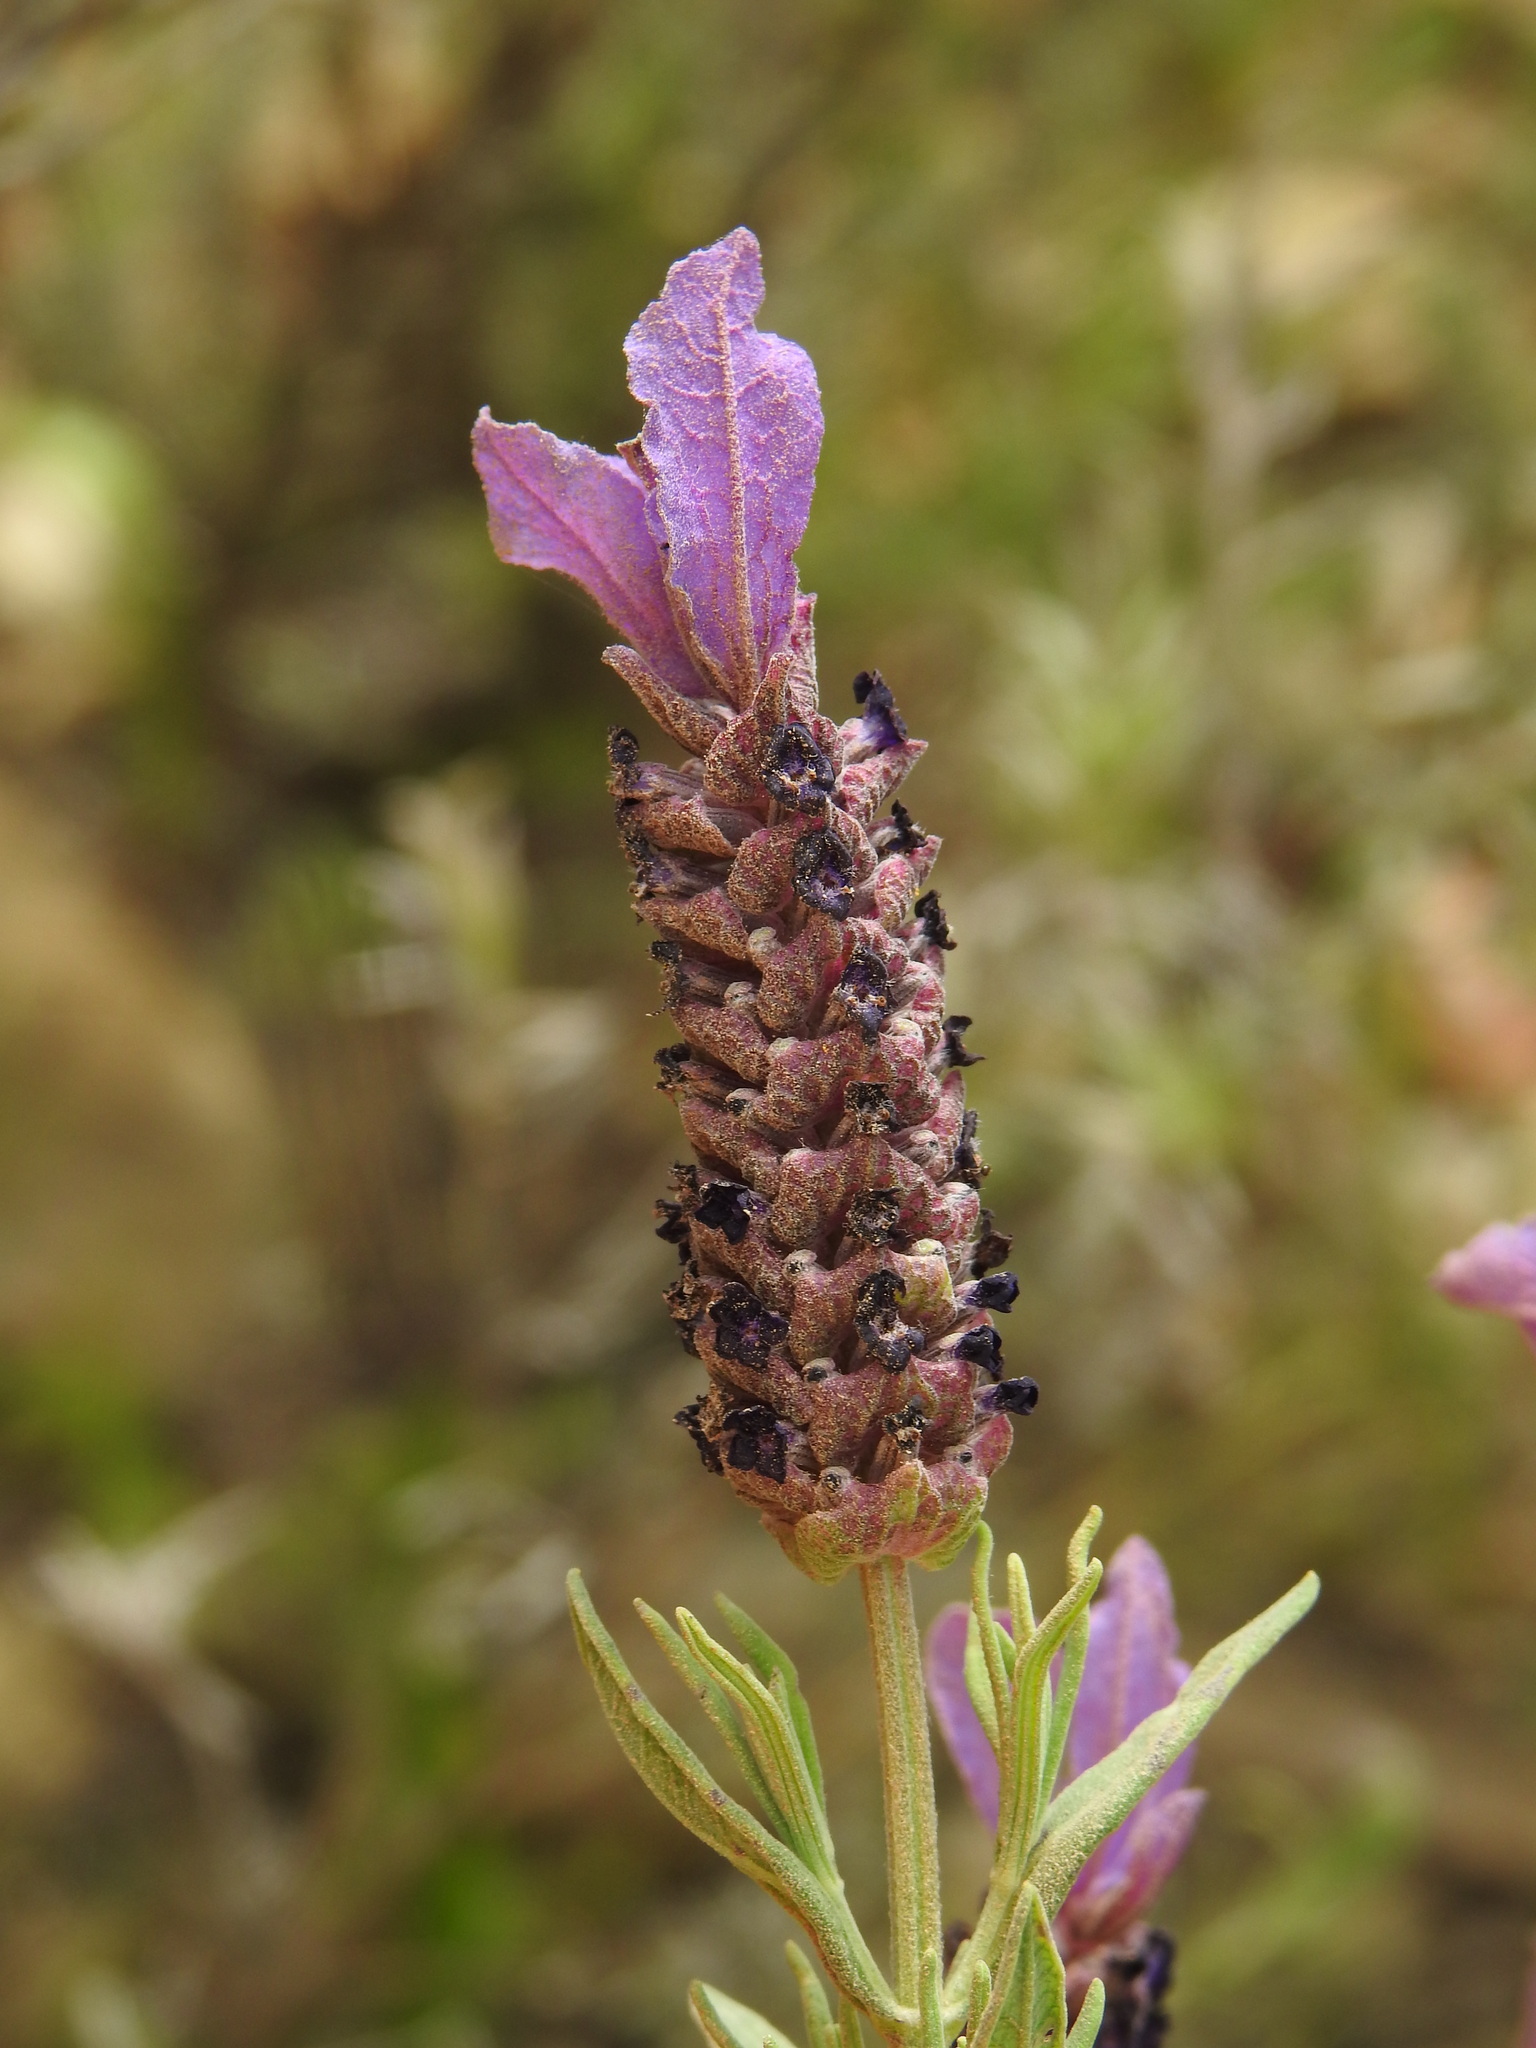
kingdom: Plantae
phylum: Tracheophyta
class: Magnoliopsida
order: Lamiales
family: Lamiaceae
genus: Lavandula
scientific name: Lavandula stoechas
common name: French lavender
